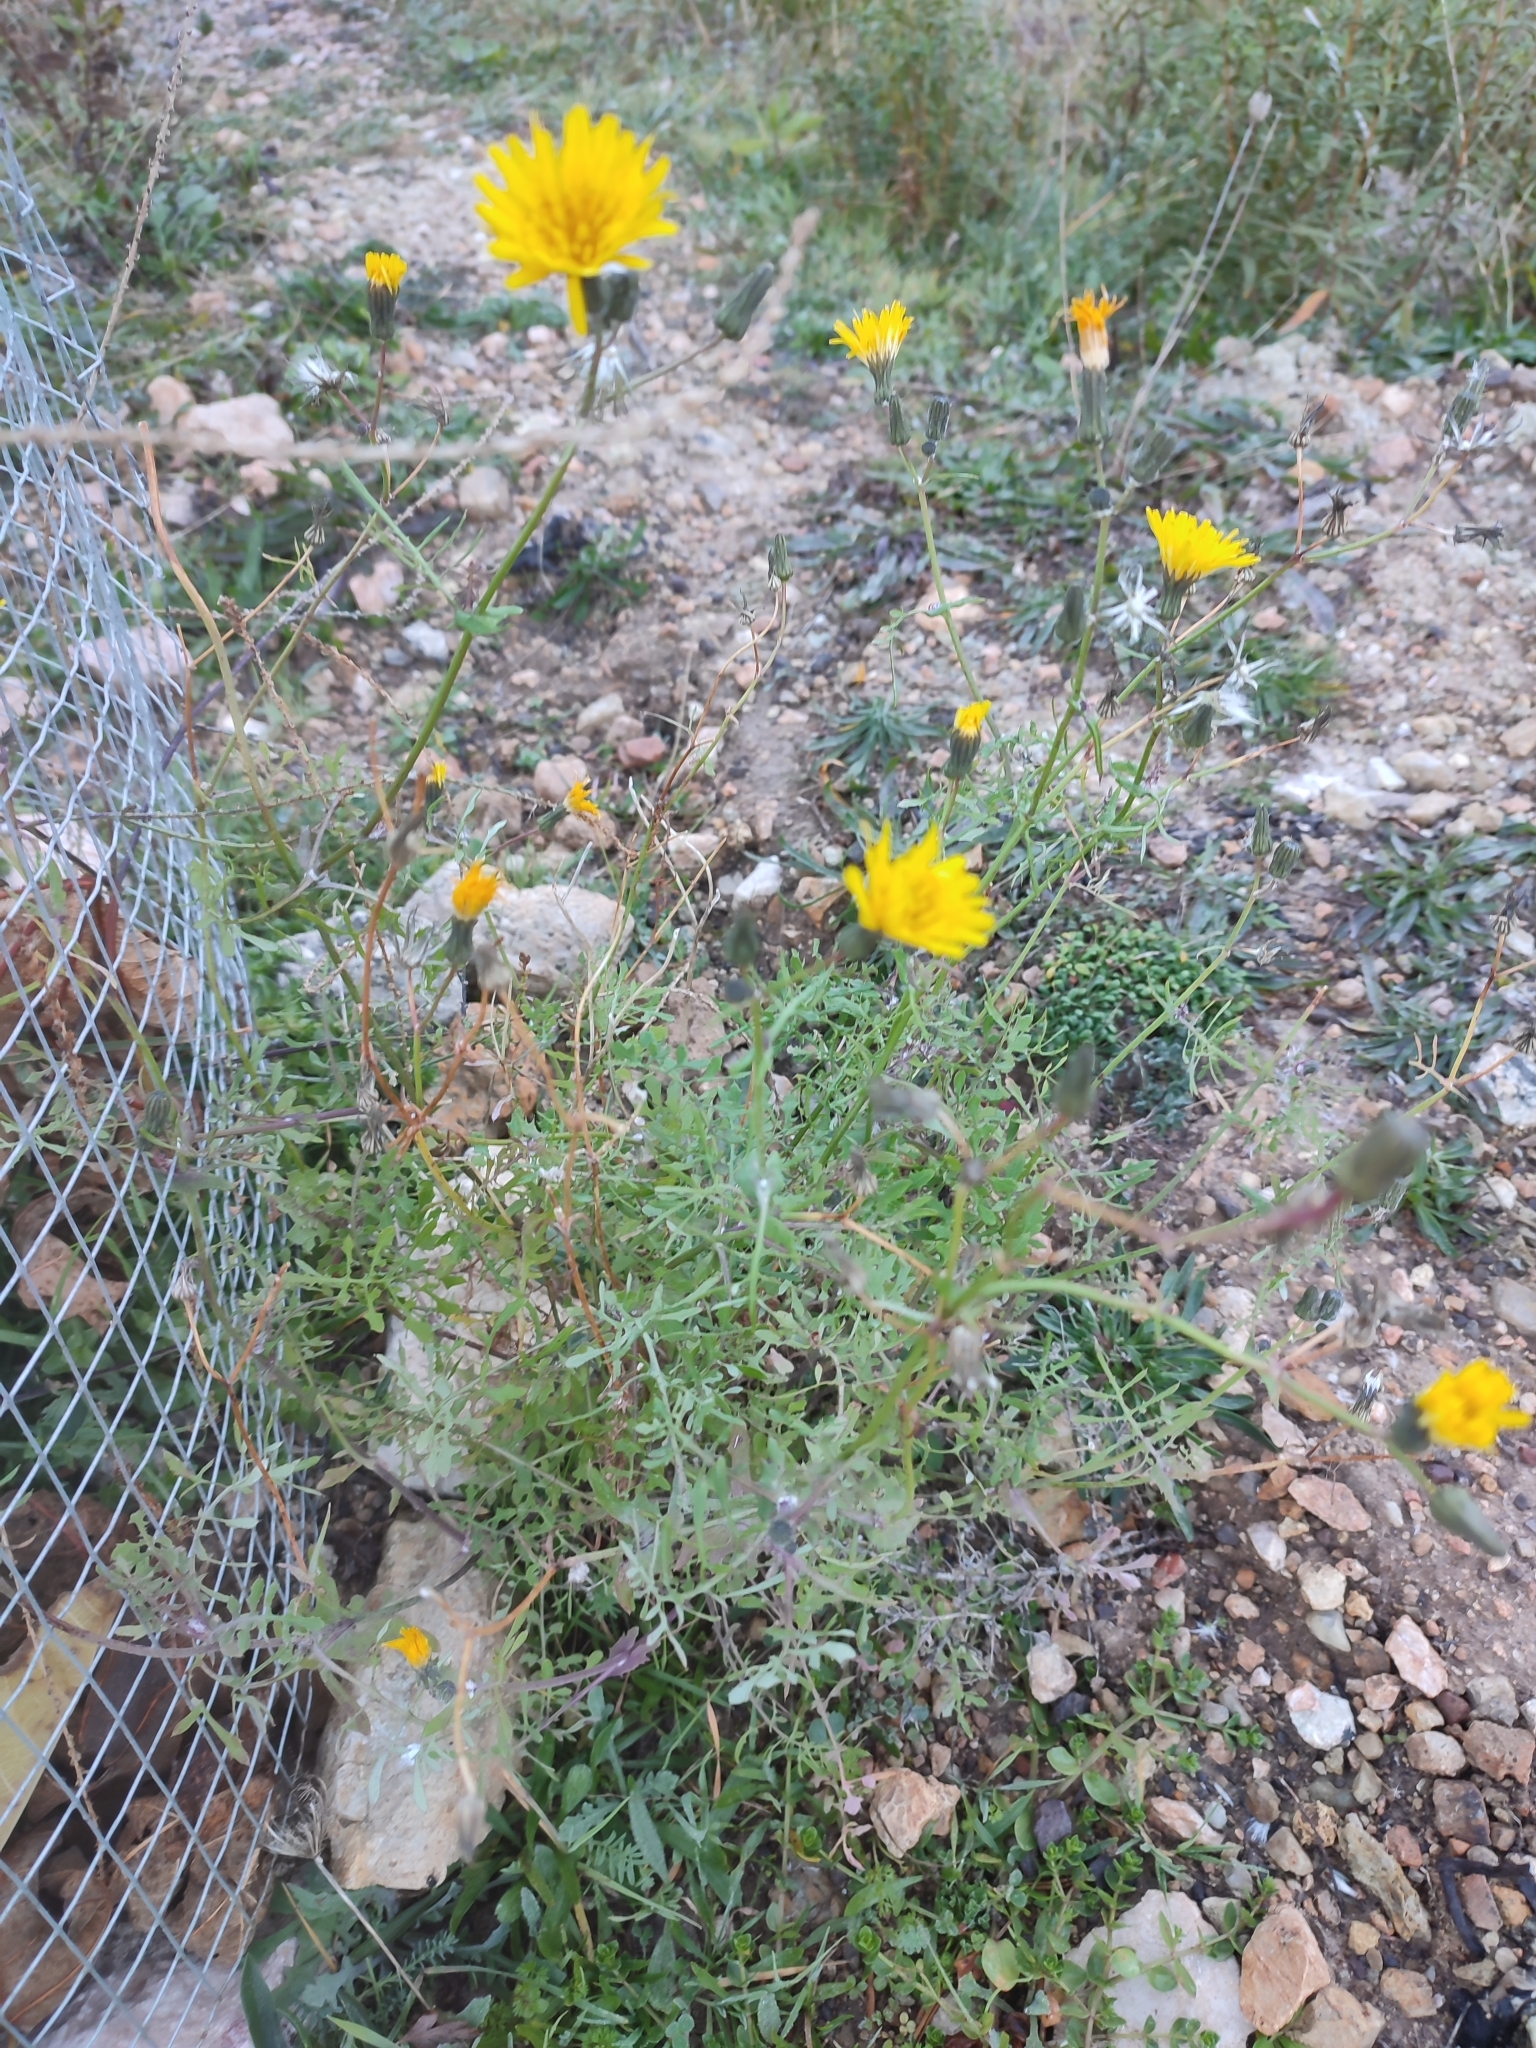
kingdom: Plantae
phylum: Tracheophyta
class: Magnoliopsida
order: Asterales
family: Asteraceae
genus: Sonchus
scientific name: Sonchus tenerrimus
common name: Clammy sowthistle
